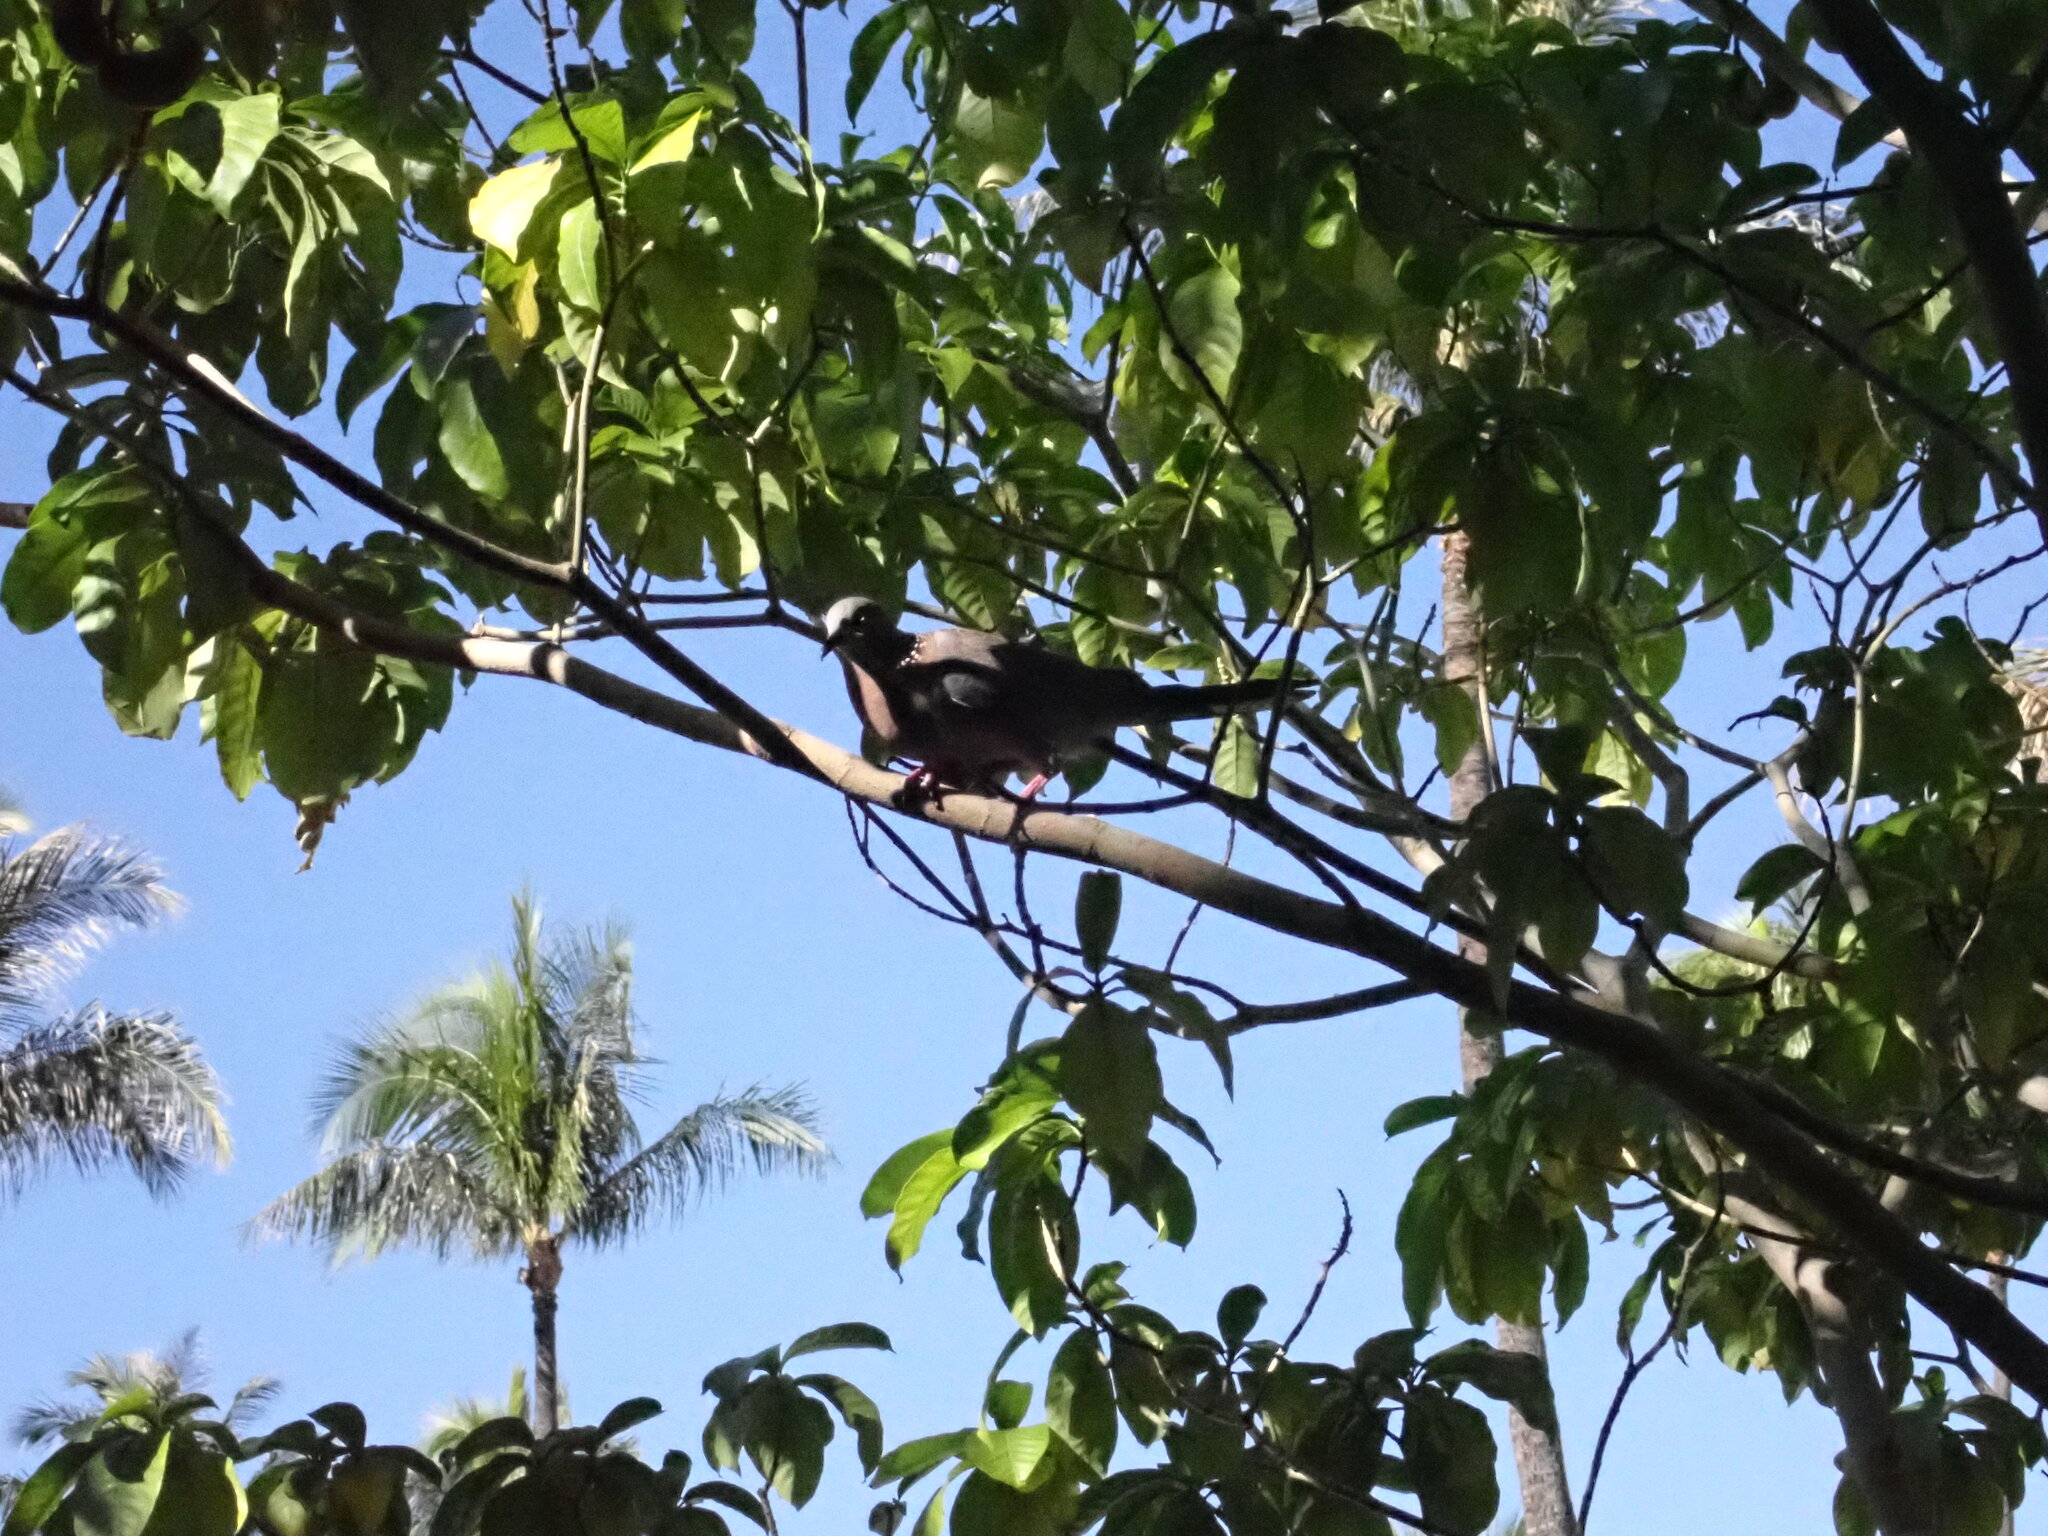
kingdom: Animalia
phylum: Chordata
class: Aves
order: Columbiformes
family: Columbidae
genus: Spilopelia
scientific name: Spilopelia chinensis
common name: Spotted dove
